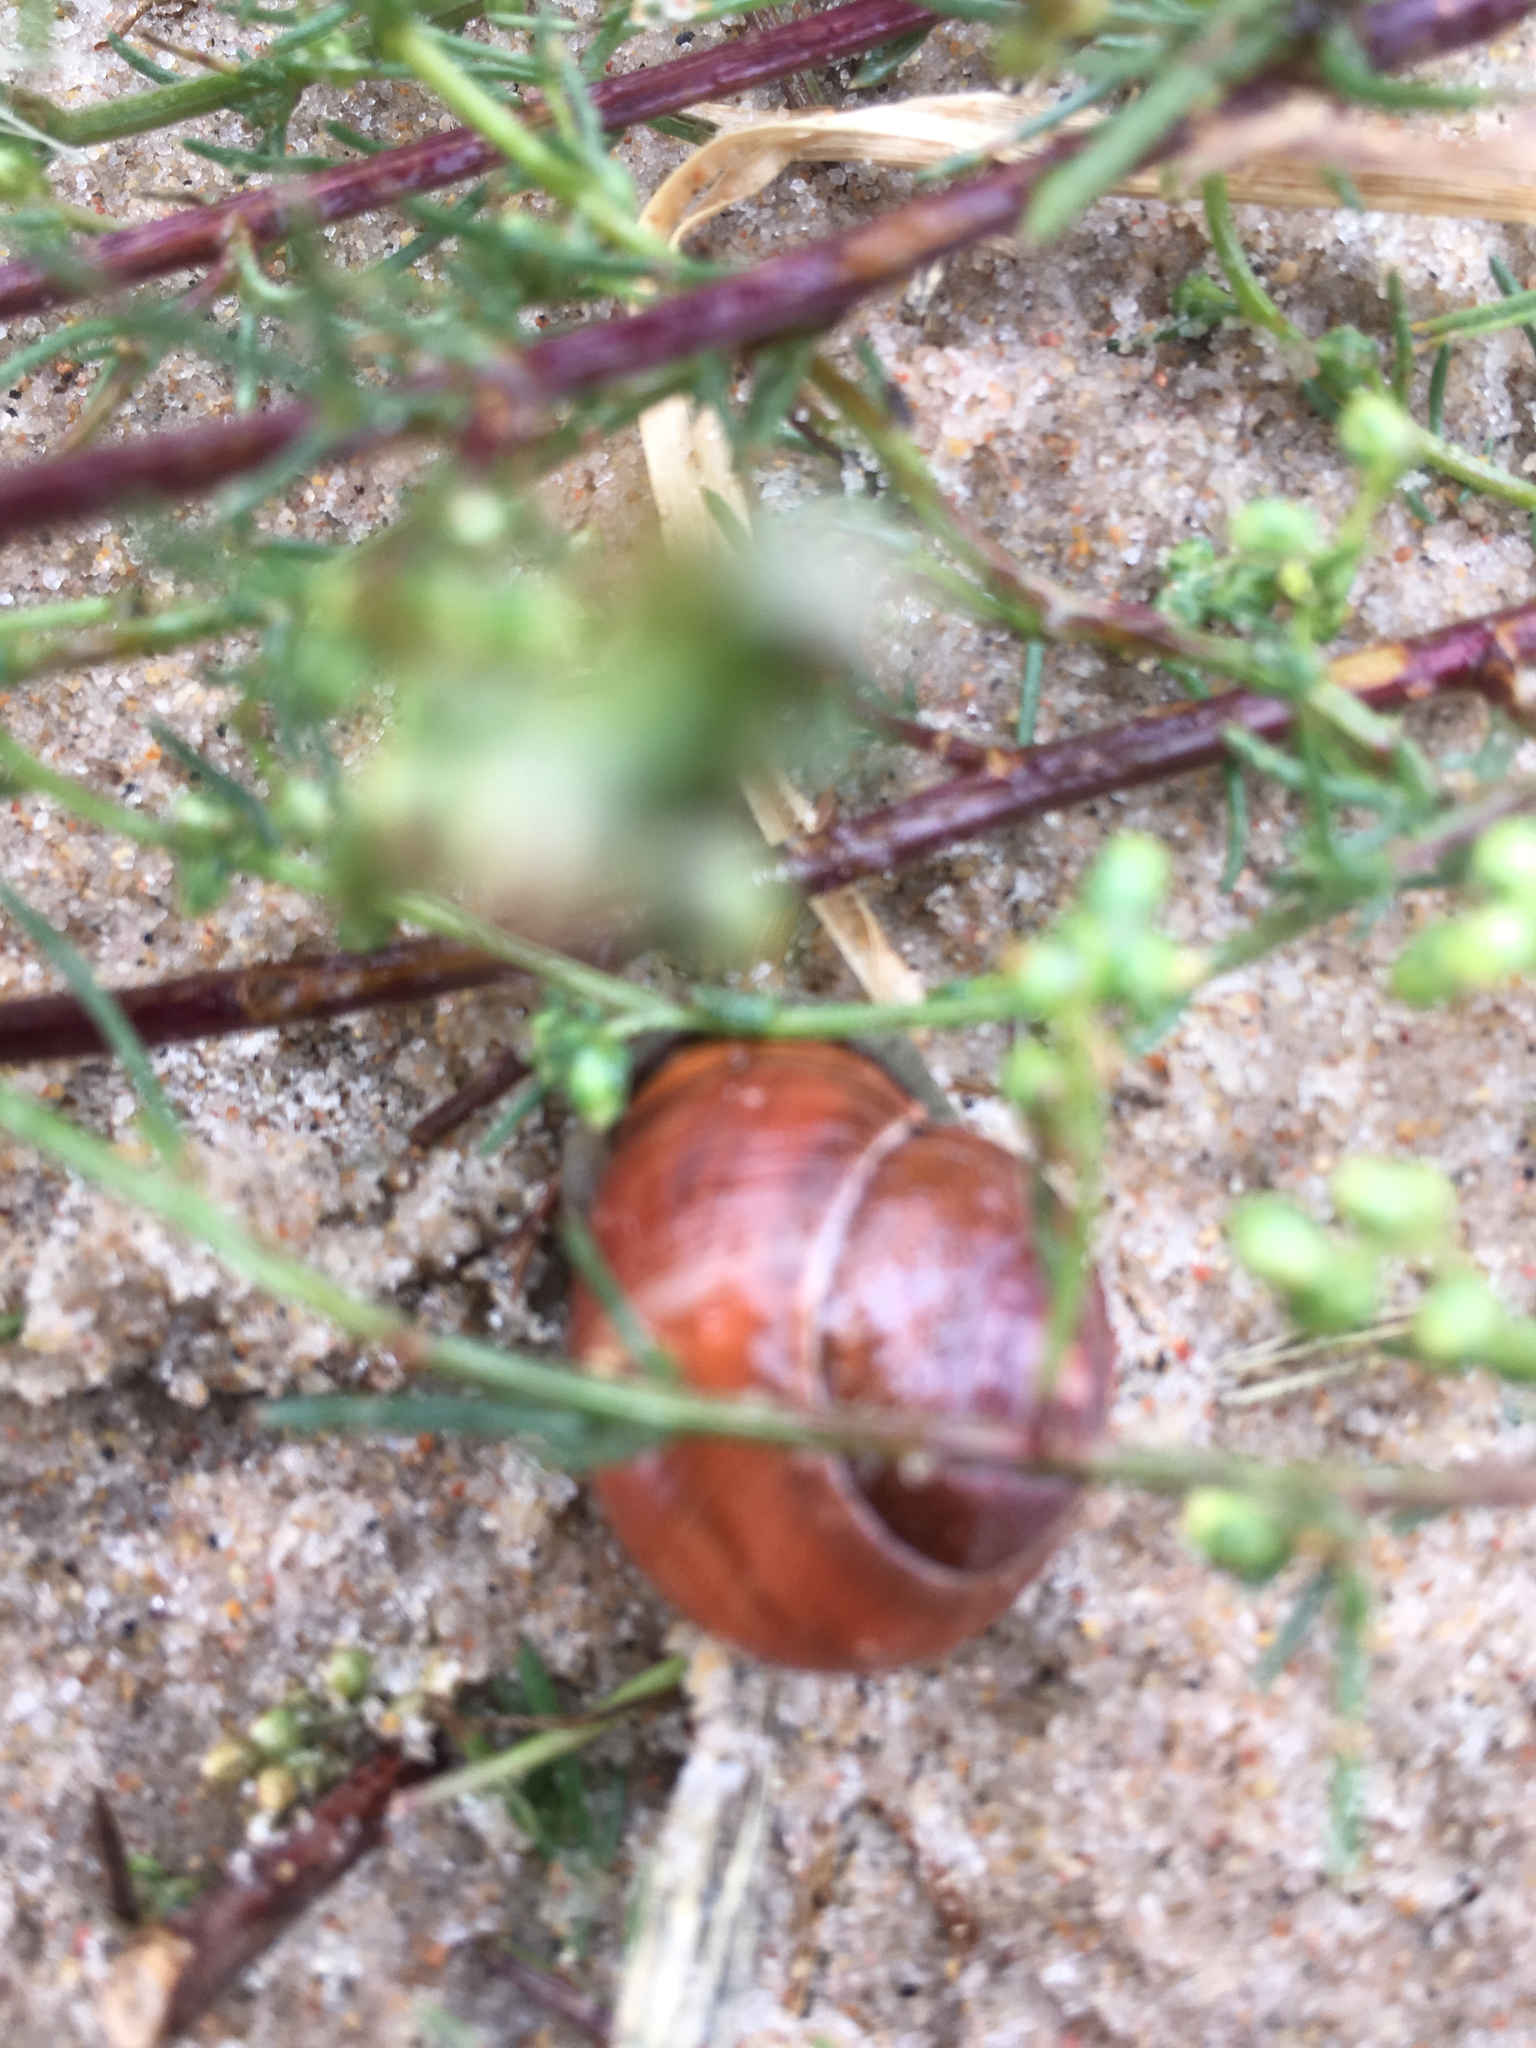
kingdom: Animalia
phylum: Mollusca
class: Gastropoda
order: Stylommatophora
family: Helicidae
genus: Cepaea
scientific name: Cepaea nemoralis
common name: Grovesnail
